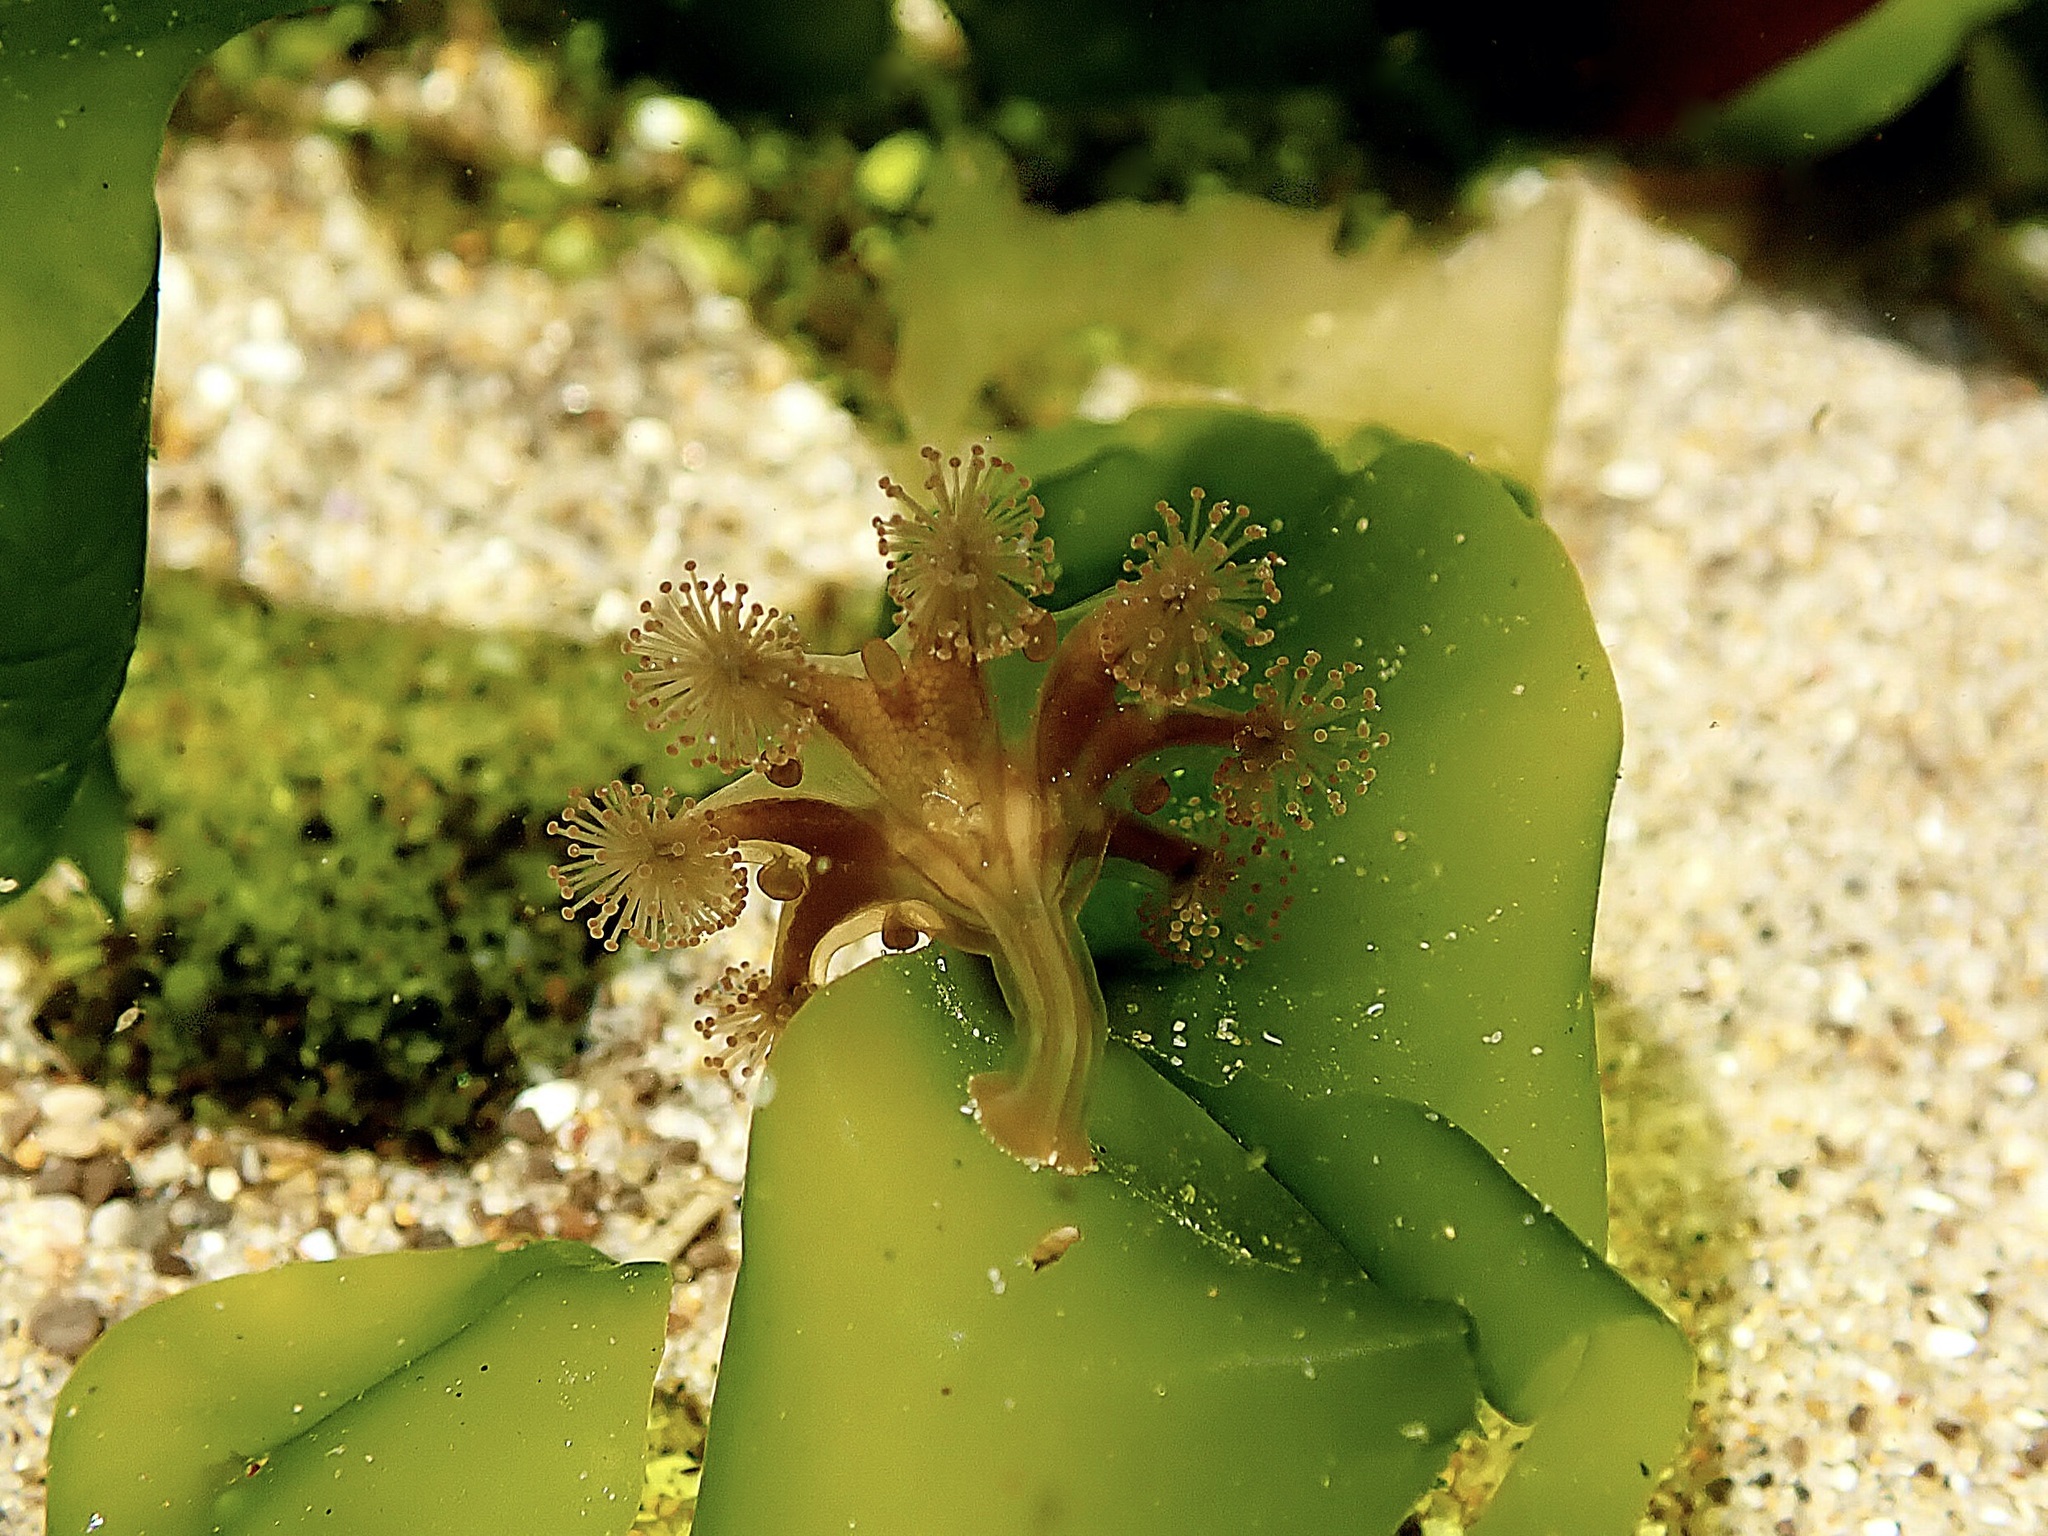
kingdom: Animalia
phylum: Cnidaria
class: Staurozoa
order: Stauromedusae
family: Haliclystidae
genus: Haliclystus
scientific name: Haliclystus sanjuanensis
